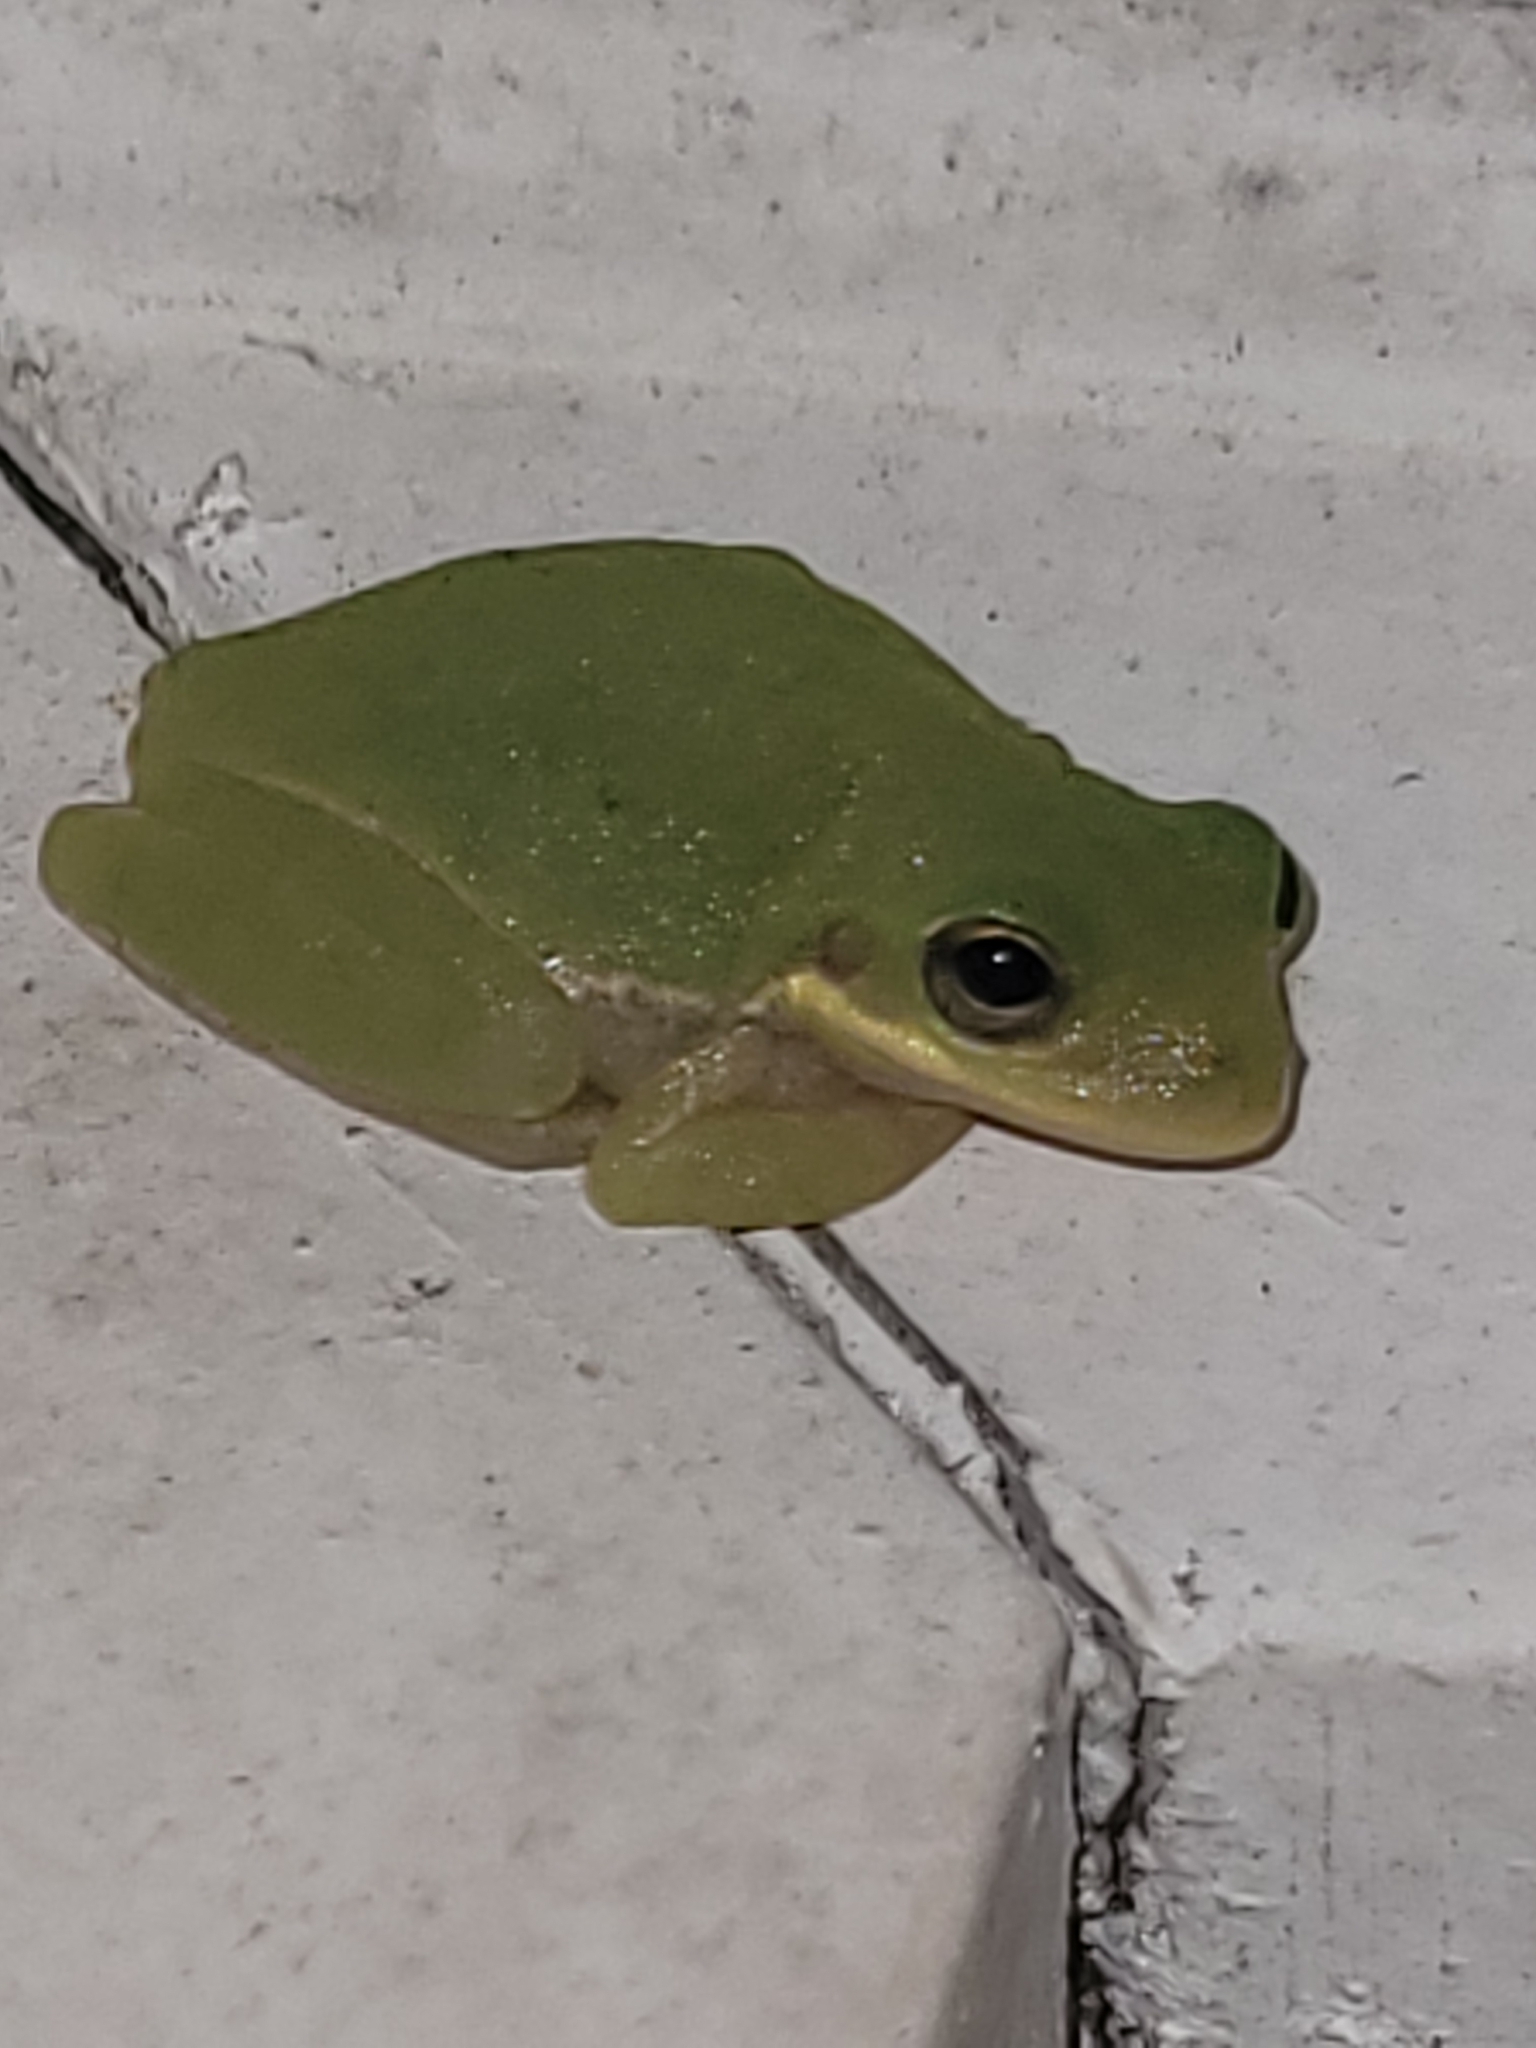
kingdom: Animalia
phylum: Chordata
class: Amphibia
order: Anura
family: Hylidae
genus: Dryophytes
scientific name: Dryophytes squirellus
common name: Squirrel treefrog
